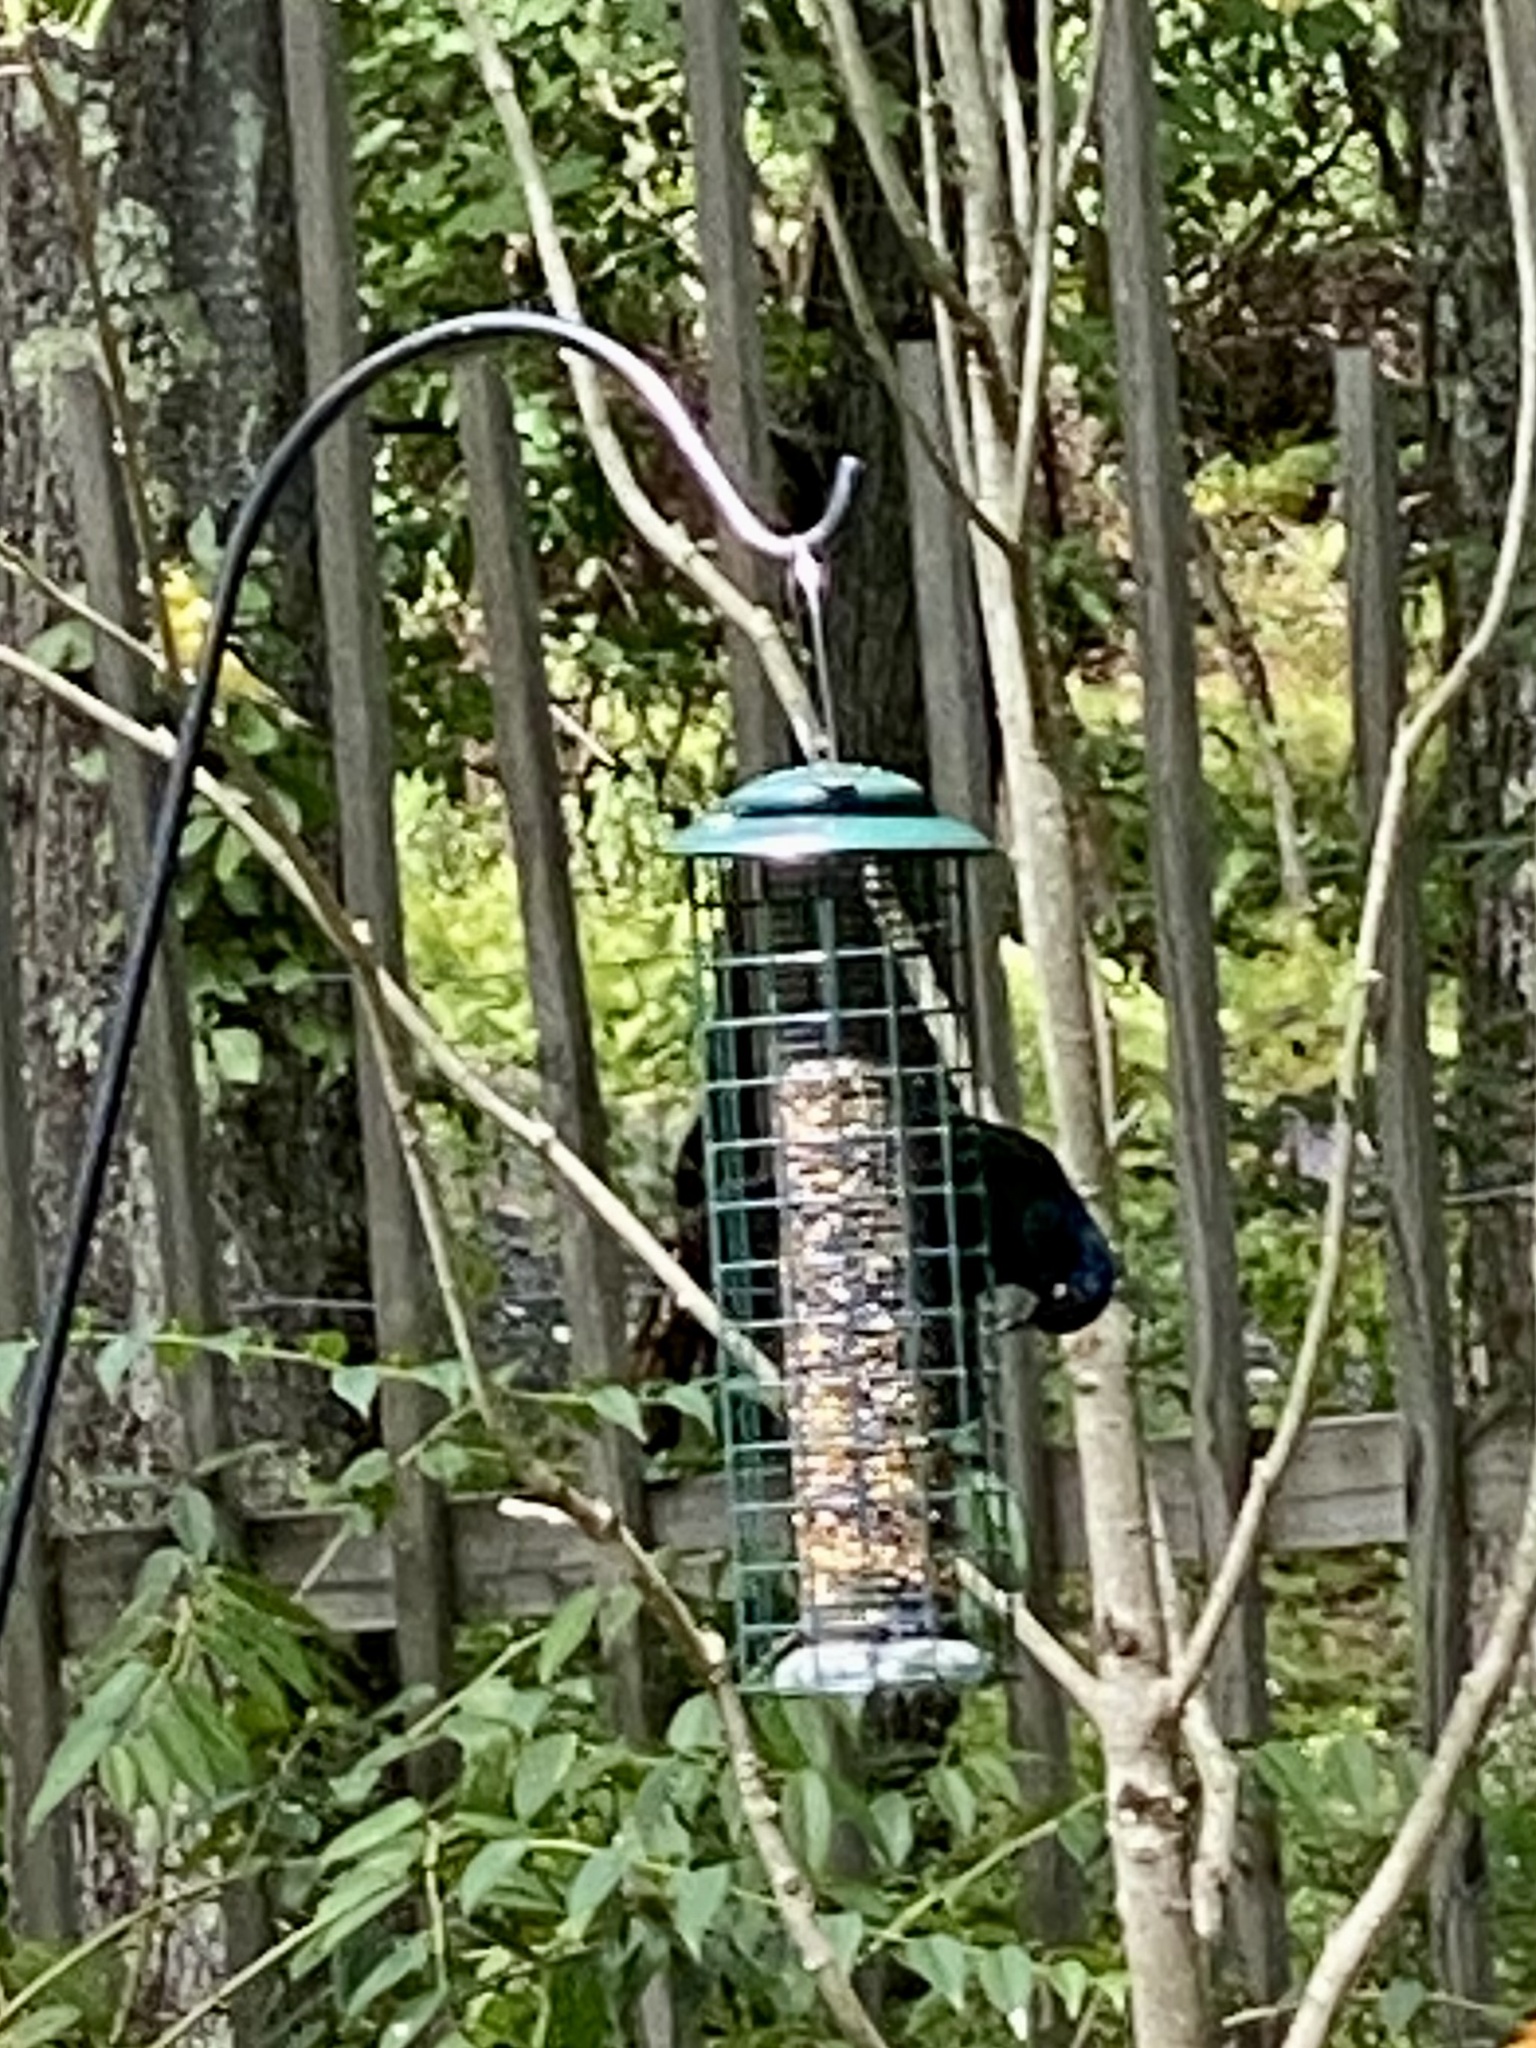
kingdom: Animalia
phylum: Chordata
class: Aves
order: Passeriformes
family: Icteridae
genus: Quiscalus
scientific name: Quiscalus quiscula
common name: Common grackle
